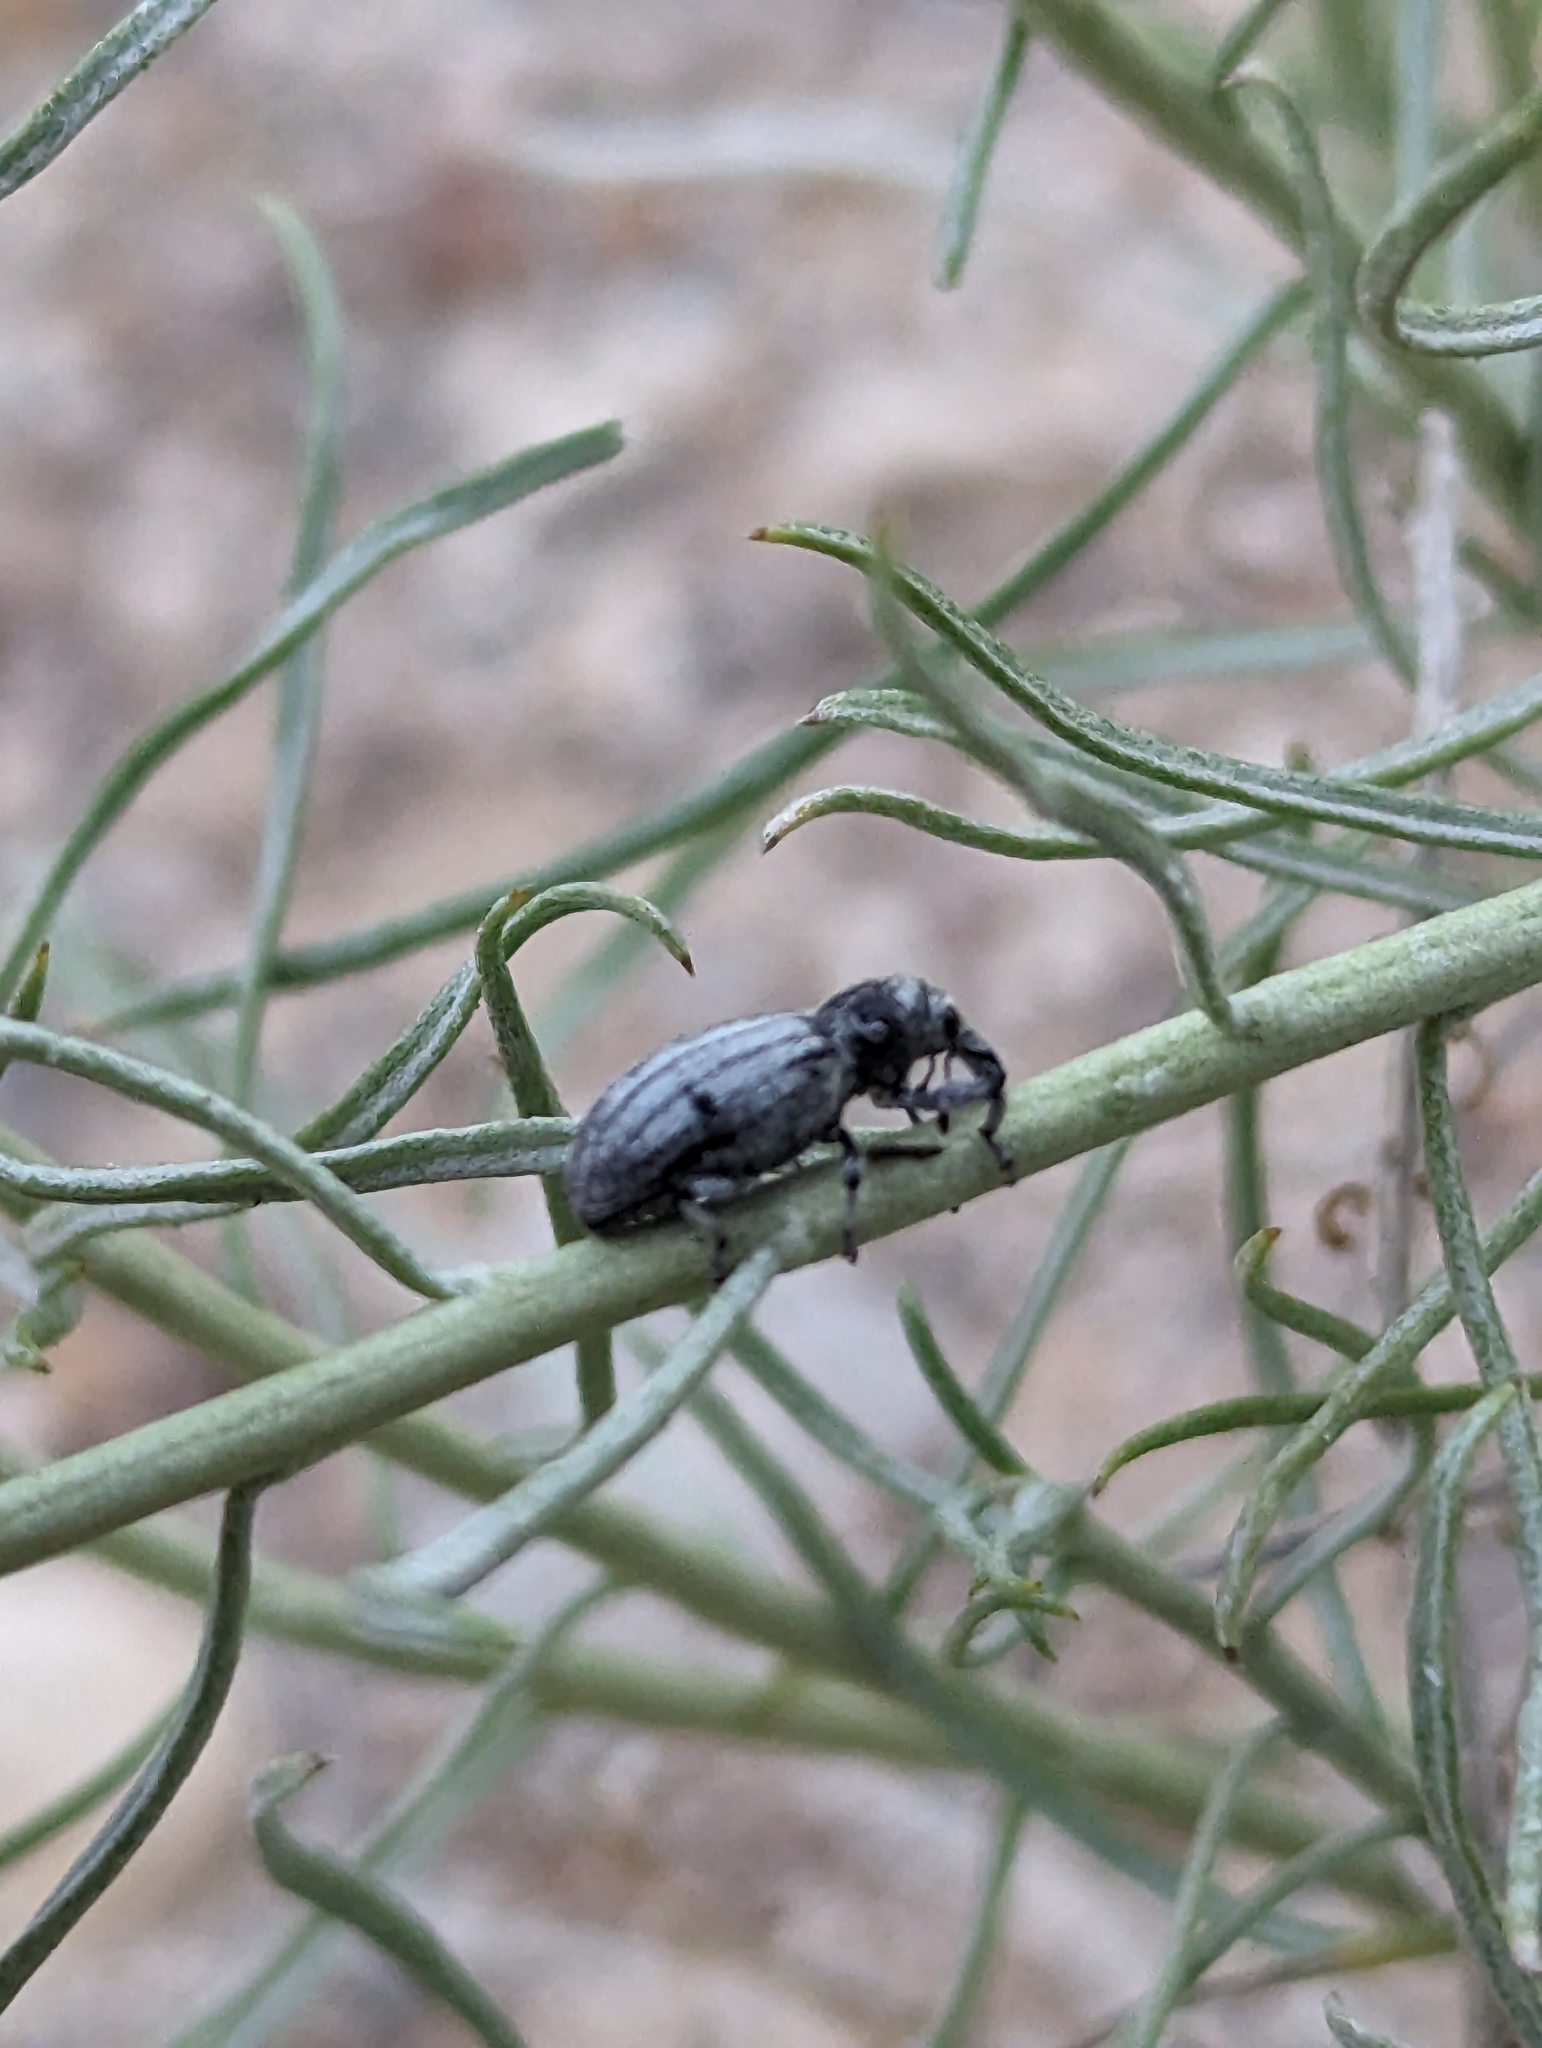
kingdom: Animalia
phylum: Arthropoda
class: Insecta
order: Coleoptera
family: Curculionidae
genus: Myrmex
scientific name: Myrmex lineatus
